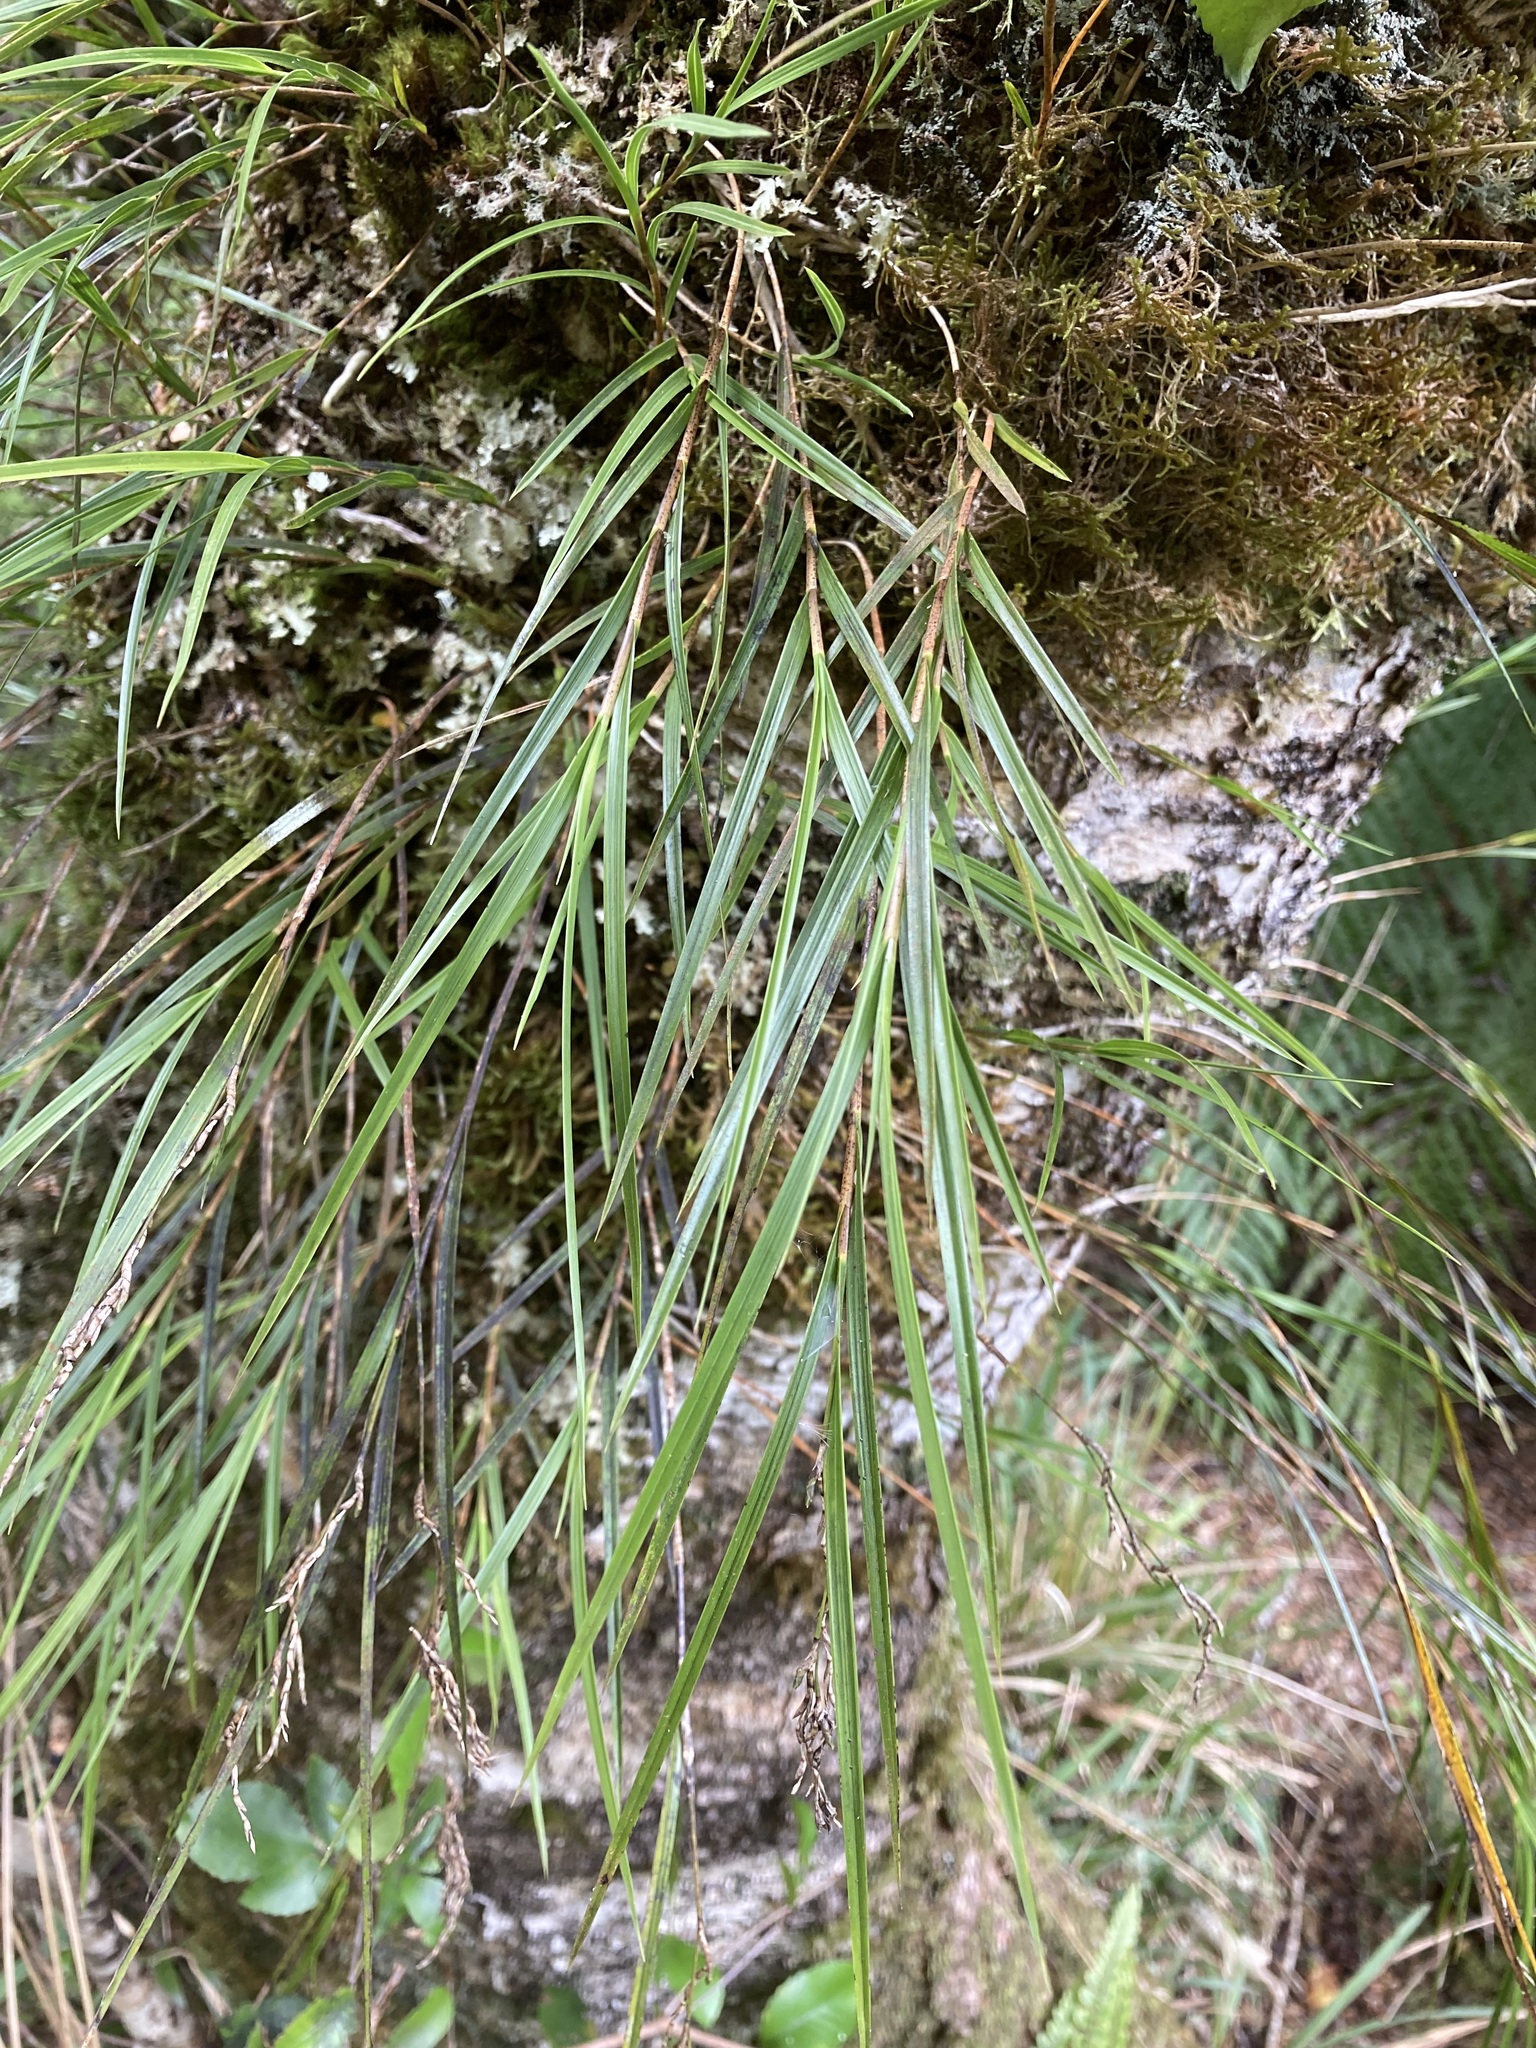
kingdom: Plantae
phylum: Tracheophyta
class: Liliopsida
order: Asparagales
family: Orchidaceae
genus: Earina
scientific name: Earina mucronata
